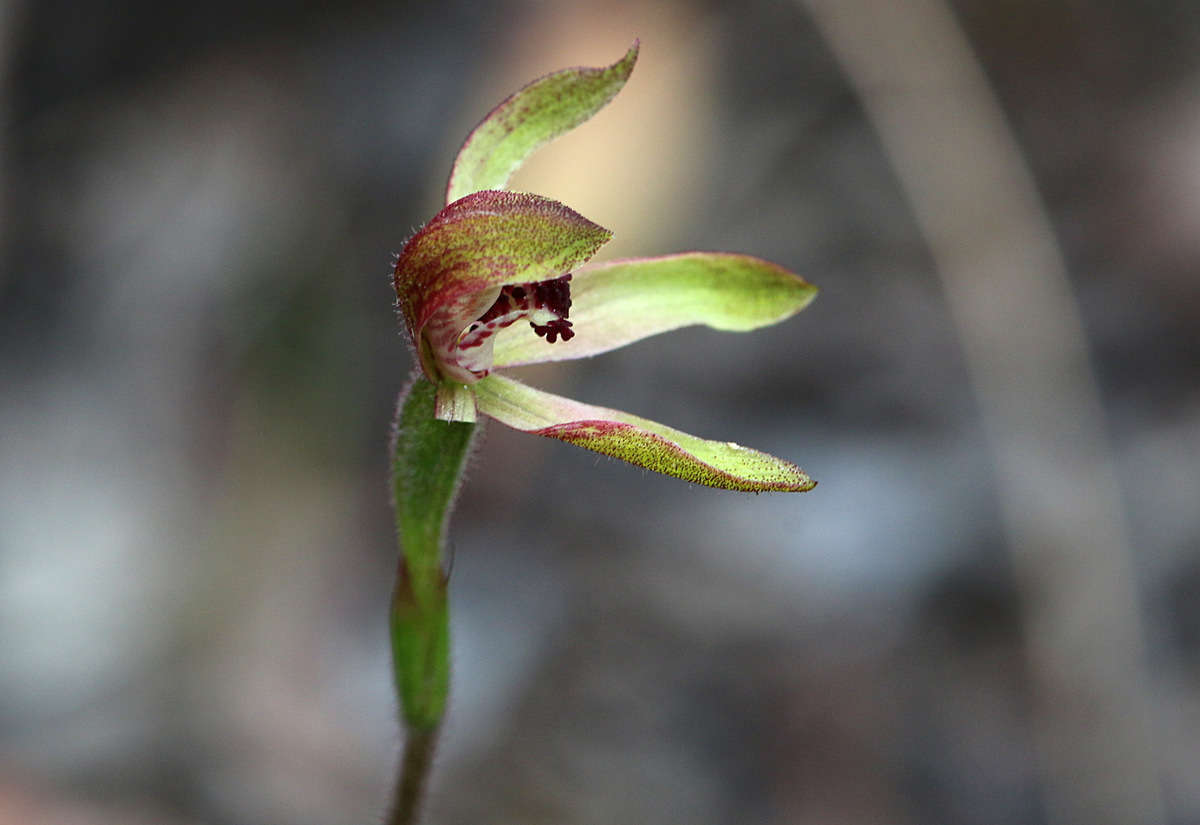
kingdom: Plantae
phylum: Tracheophyta
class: Liliopsida
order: Asparagales
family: Orchidaceae
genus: Caladenia
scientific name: Caladenia transitoria
